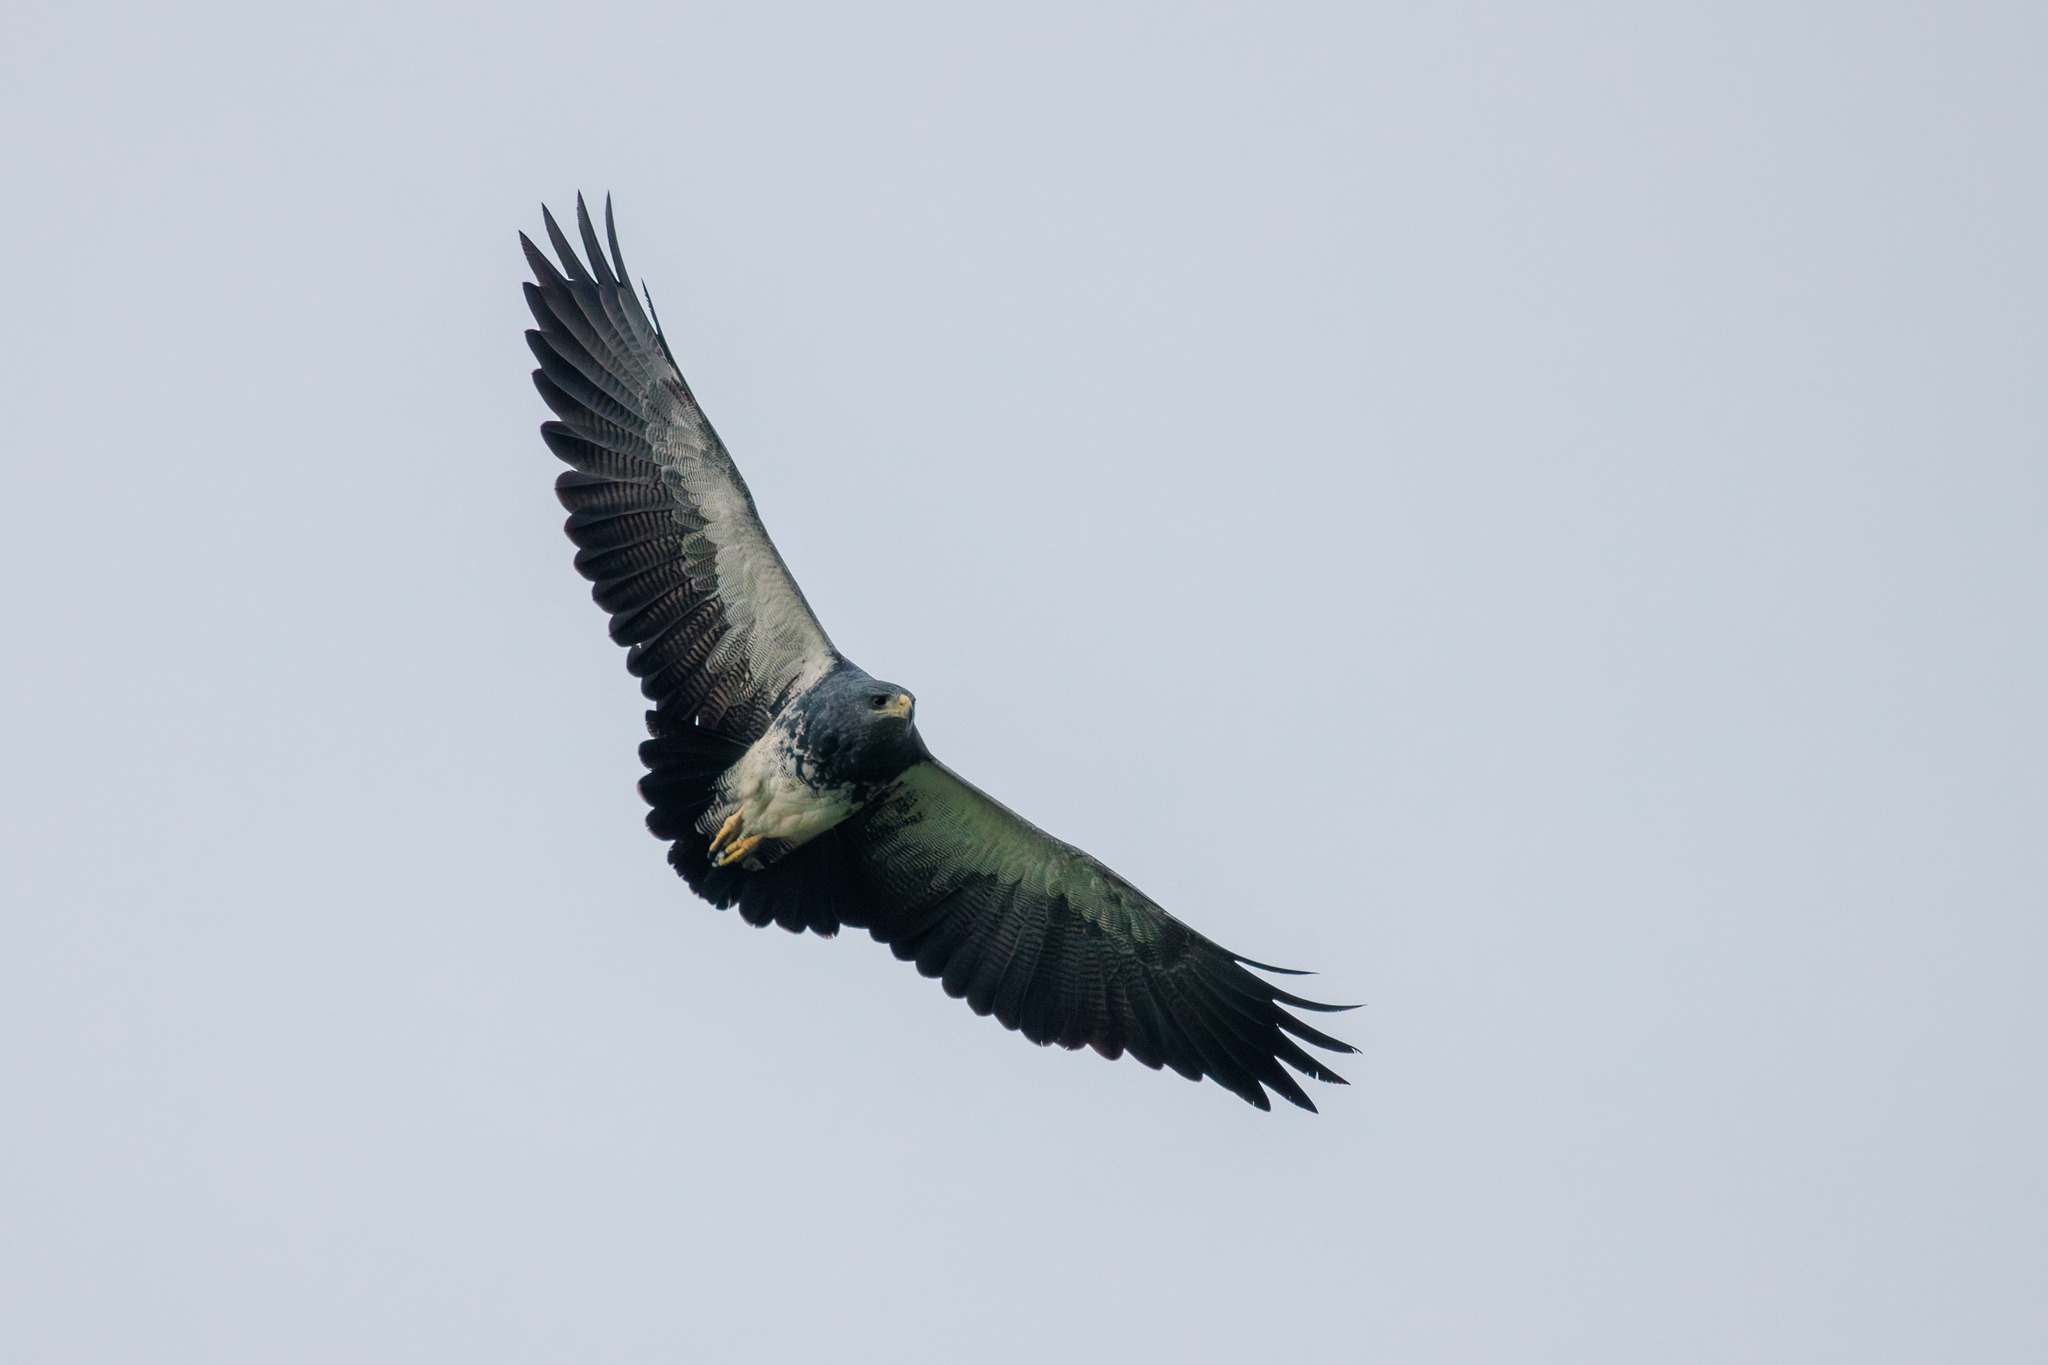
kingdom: Animalia
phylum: Chordata
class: Aves
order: Accipitriformes
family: Accipitridae
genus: Geranoaetus
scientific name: Geranoaetus melanoleucus
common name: Black-chested buzzard-eagle
